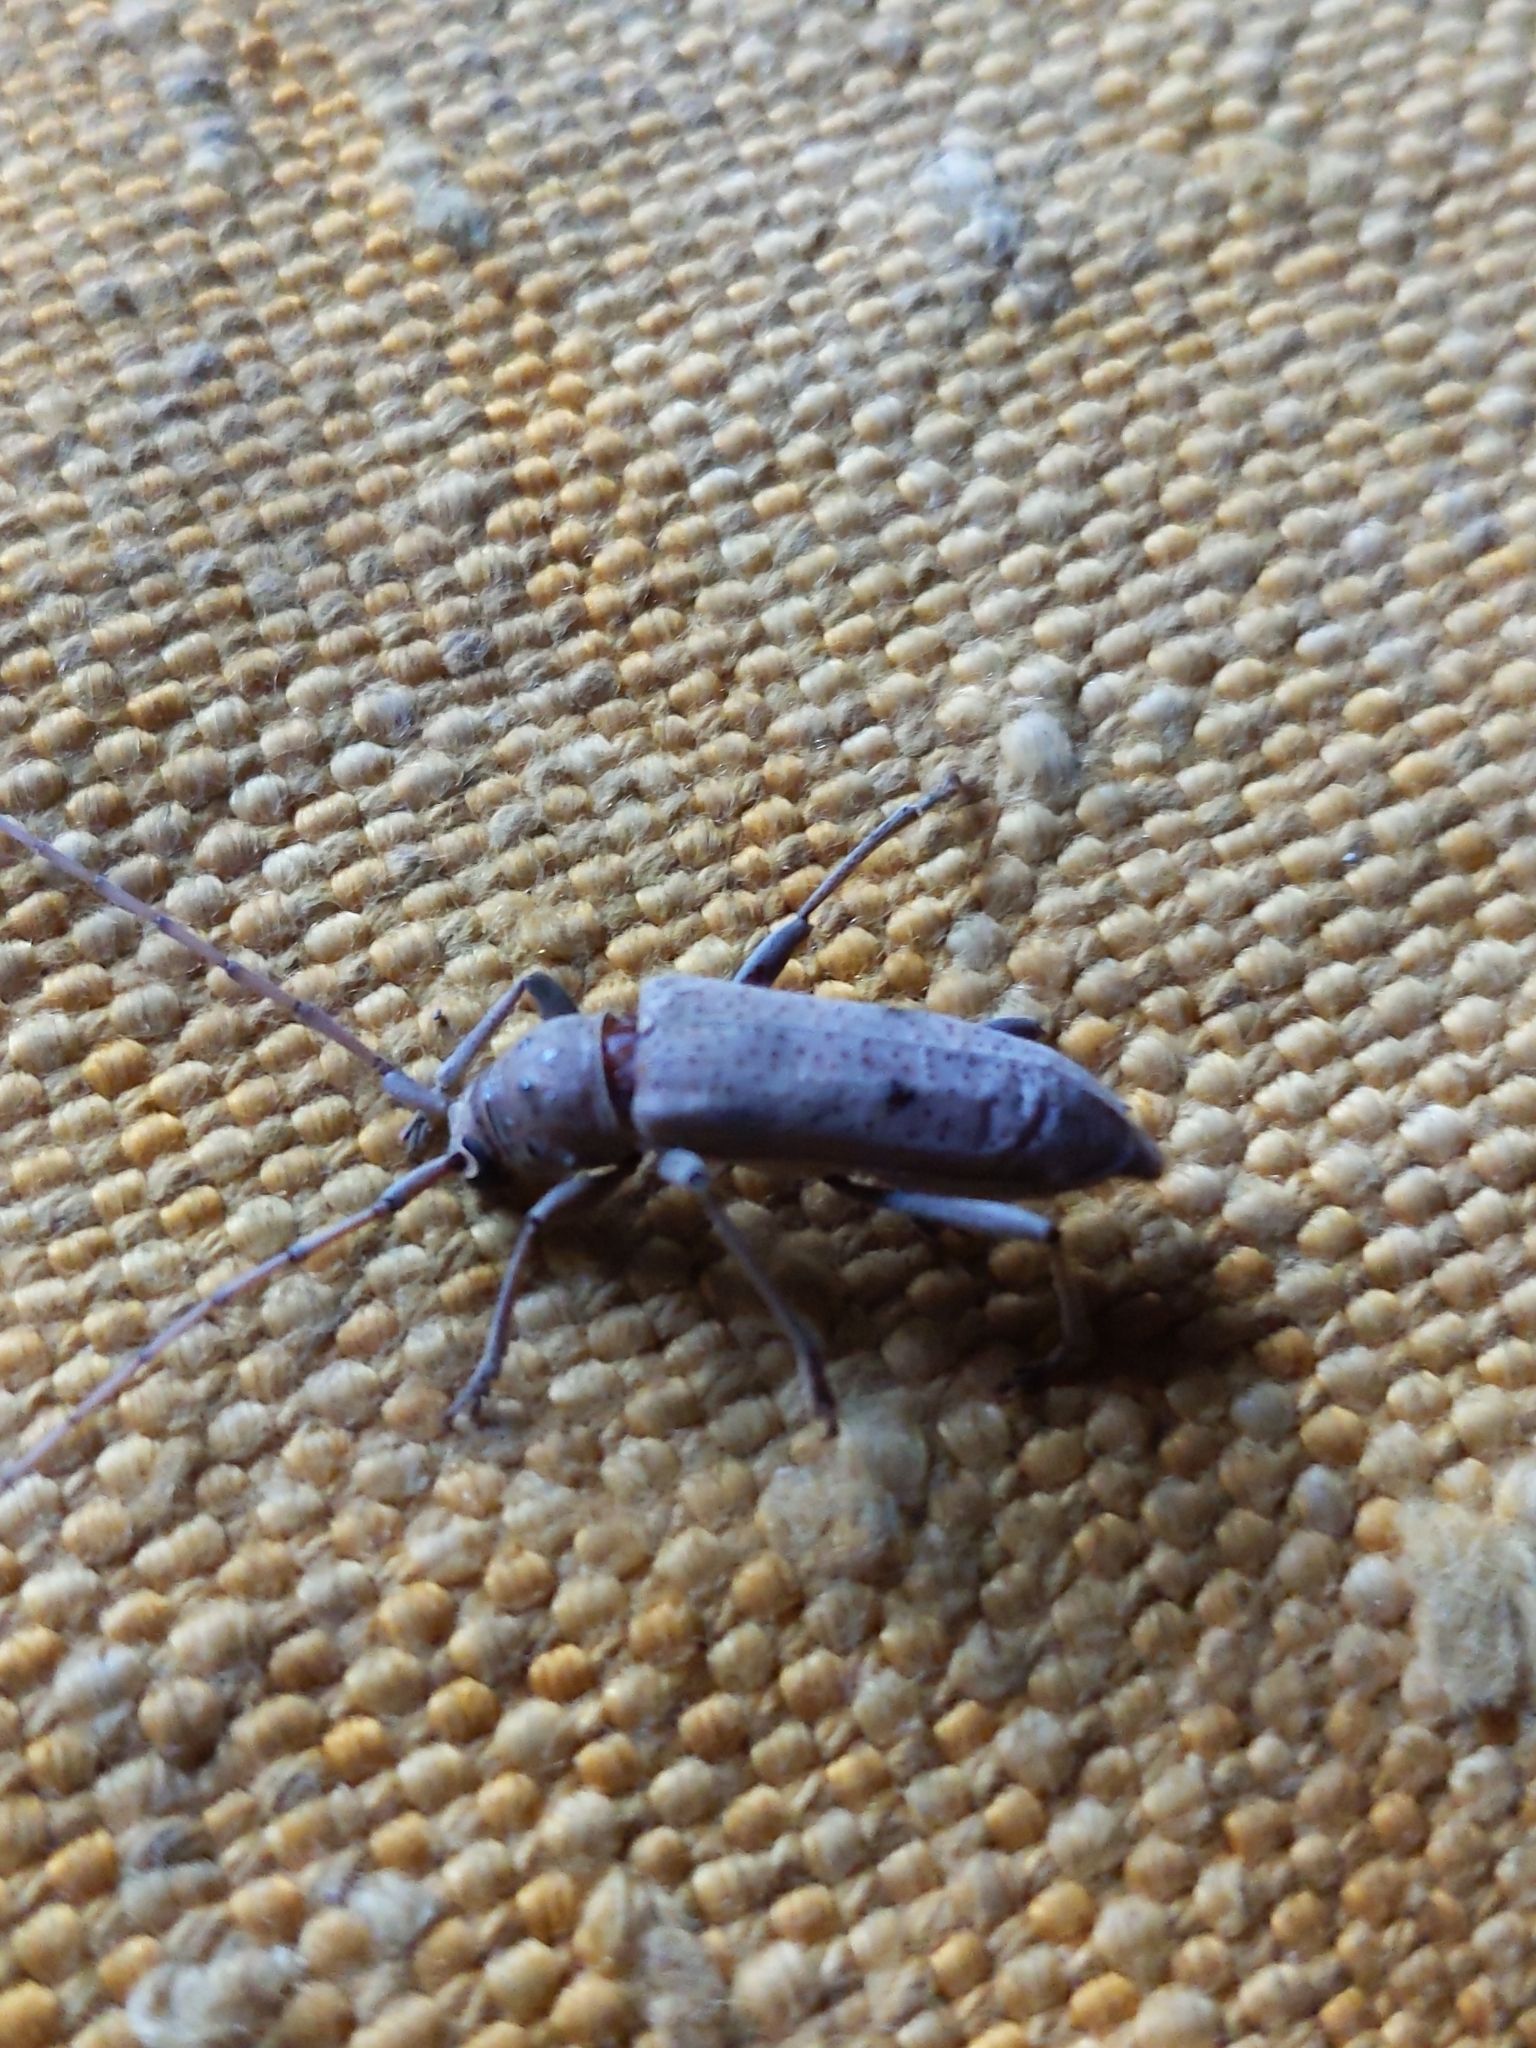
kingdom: Animalia
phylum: Arthropoda
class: Insecta
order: Coleoptera
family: Cerambycidae
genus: Eburia
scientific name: Eburia porulosa
